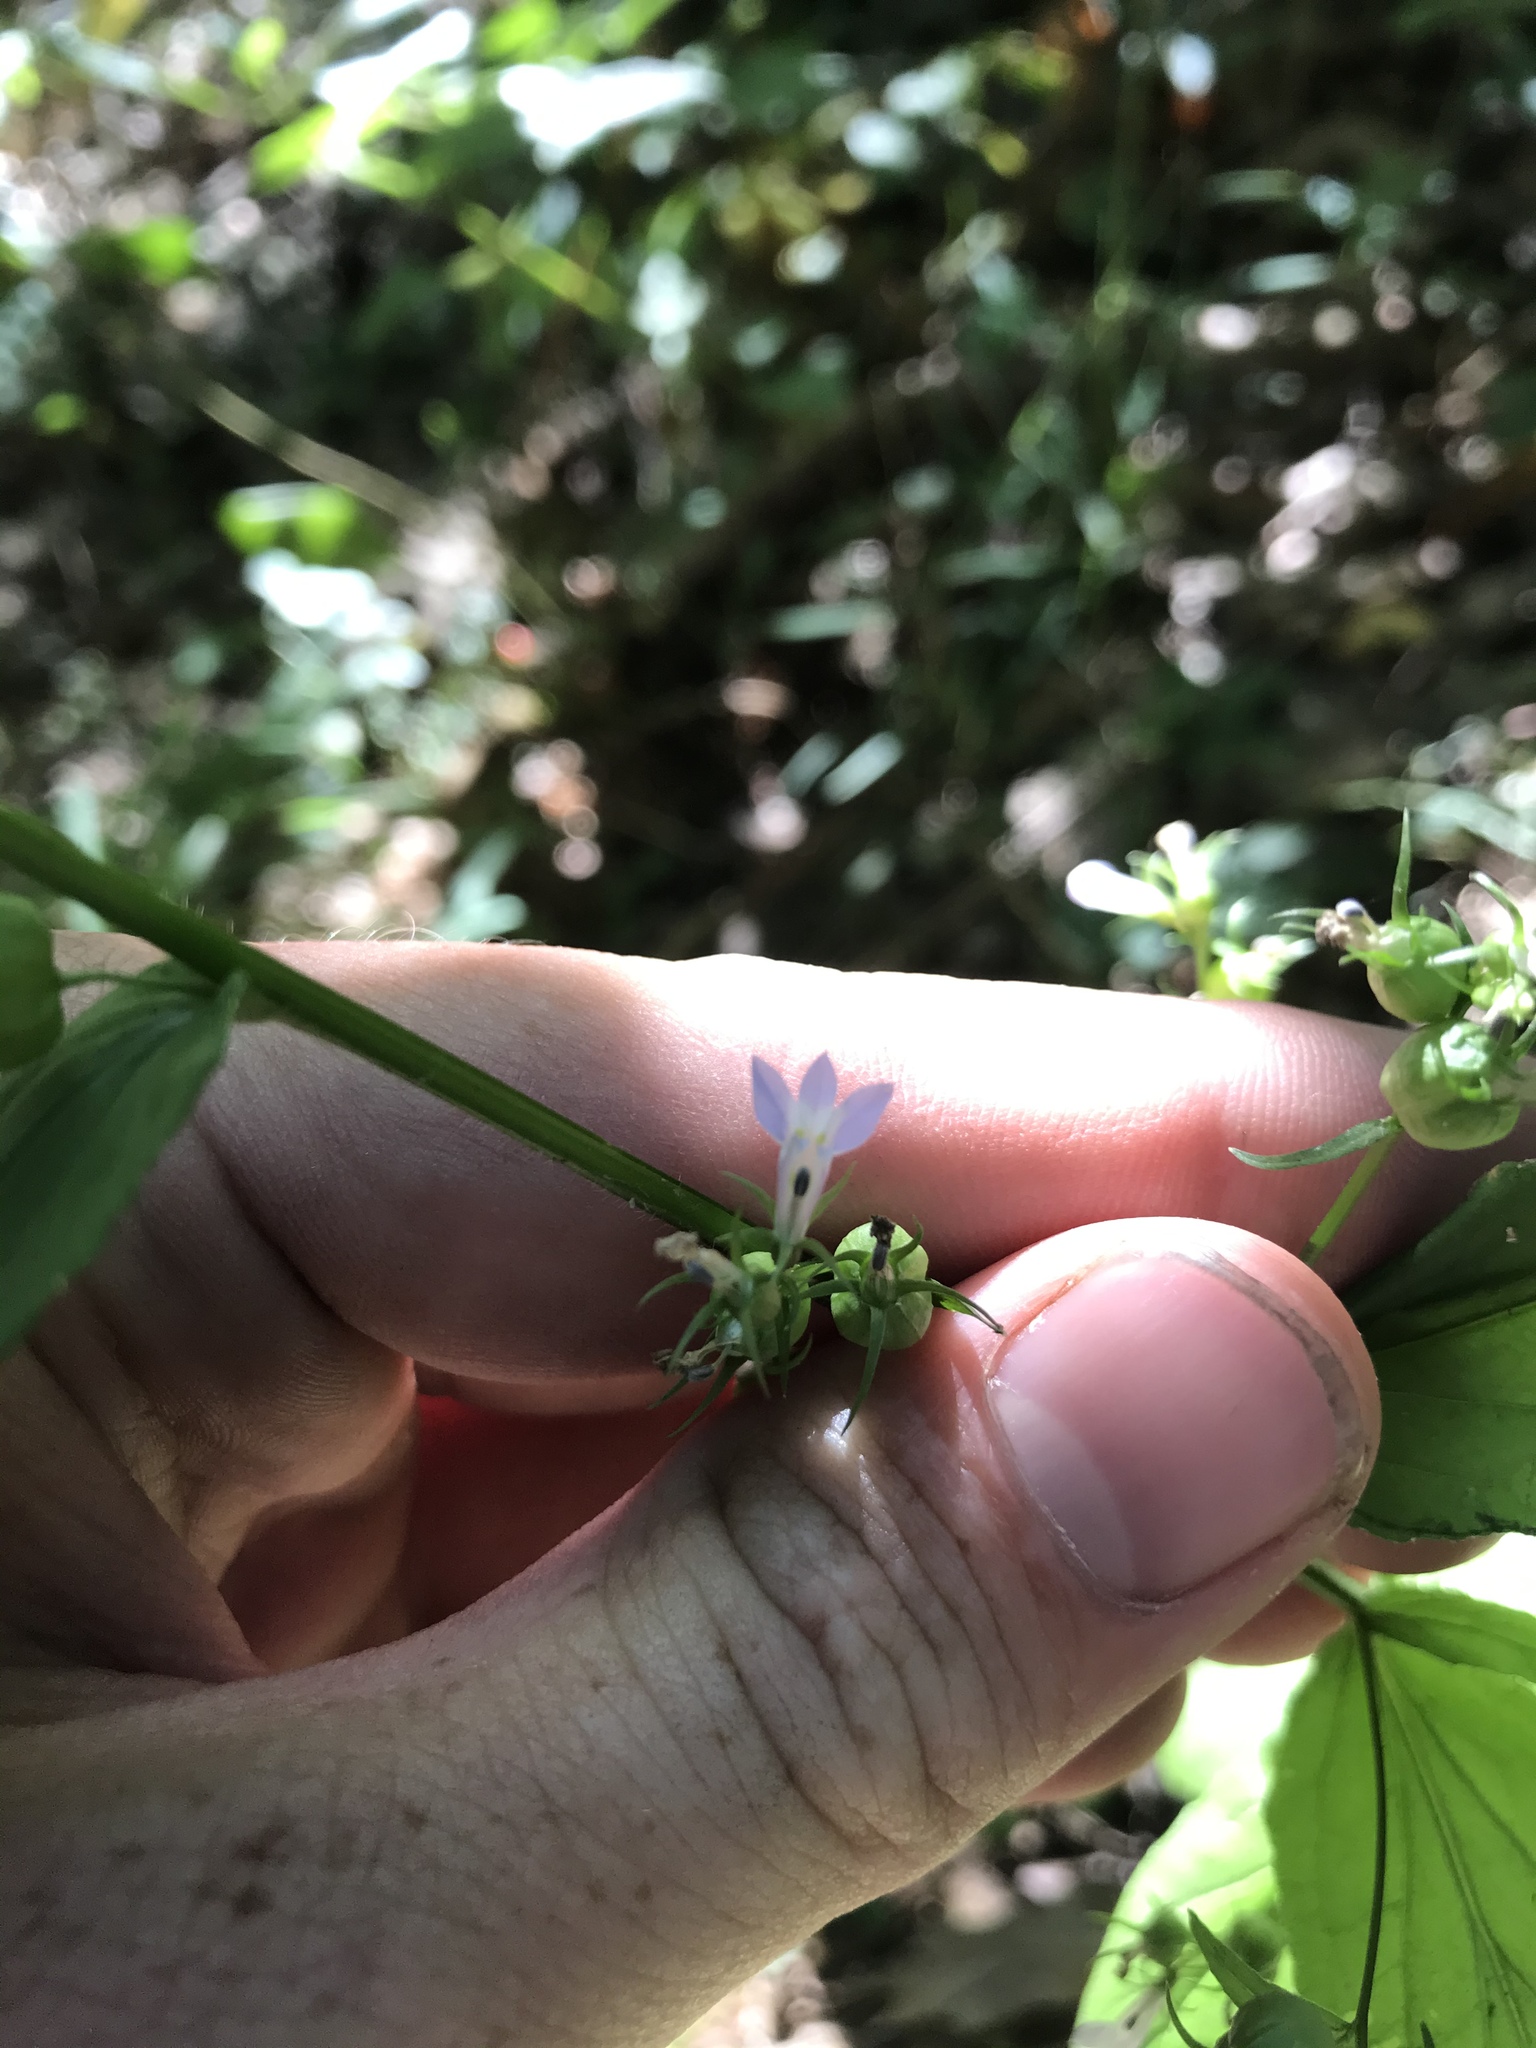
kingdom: Plantae
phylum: Tracheophyta
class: Magnoliopsida
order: Asterales
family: Campanulaceae
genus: Lobelia
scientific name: Lobelia inflata
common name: Indian tobacco
